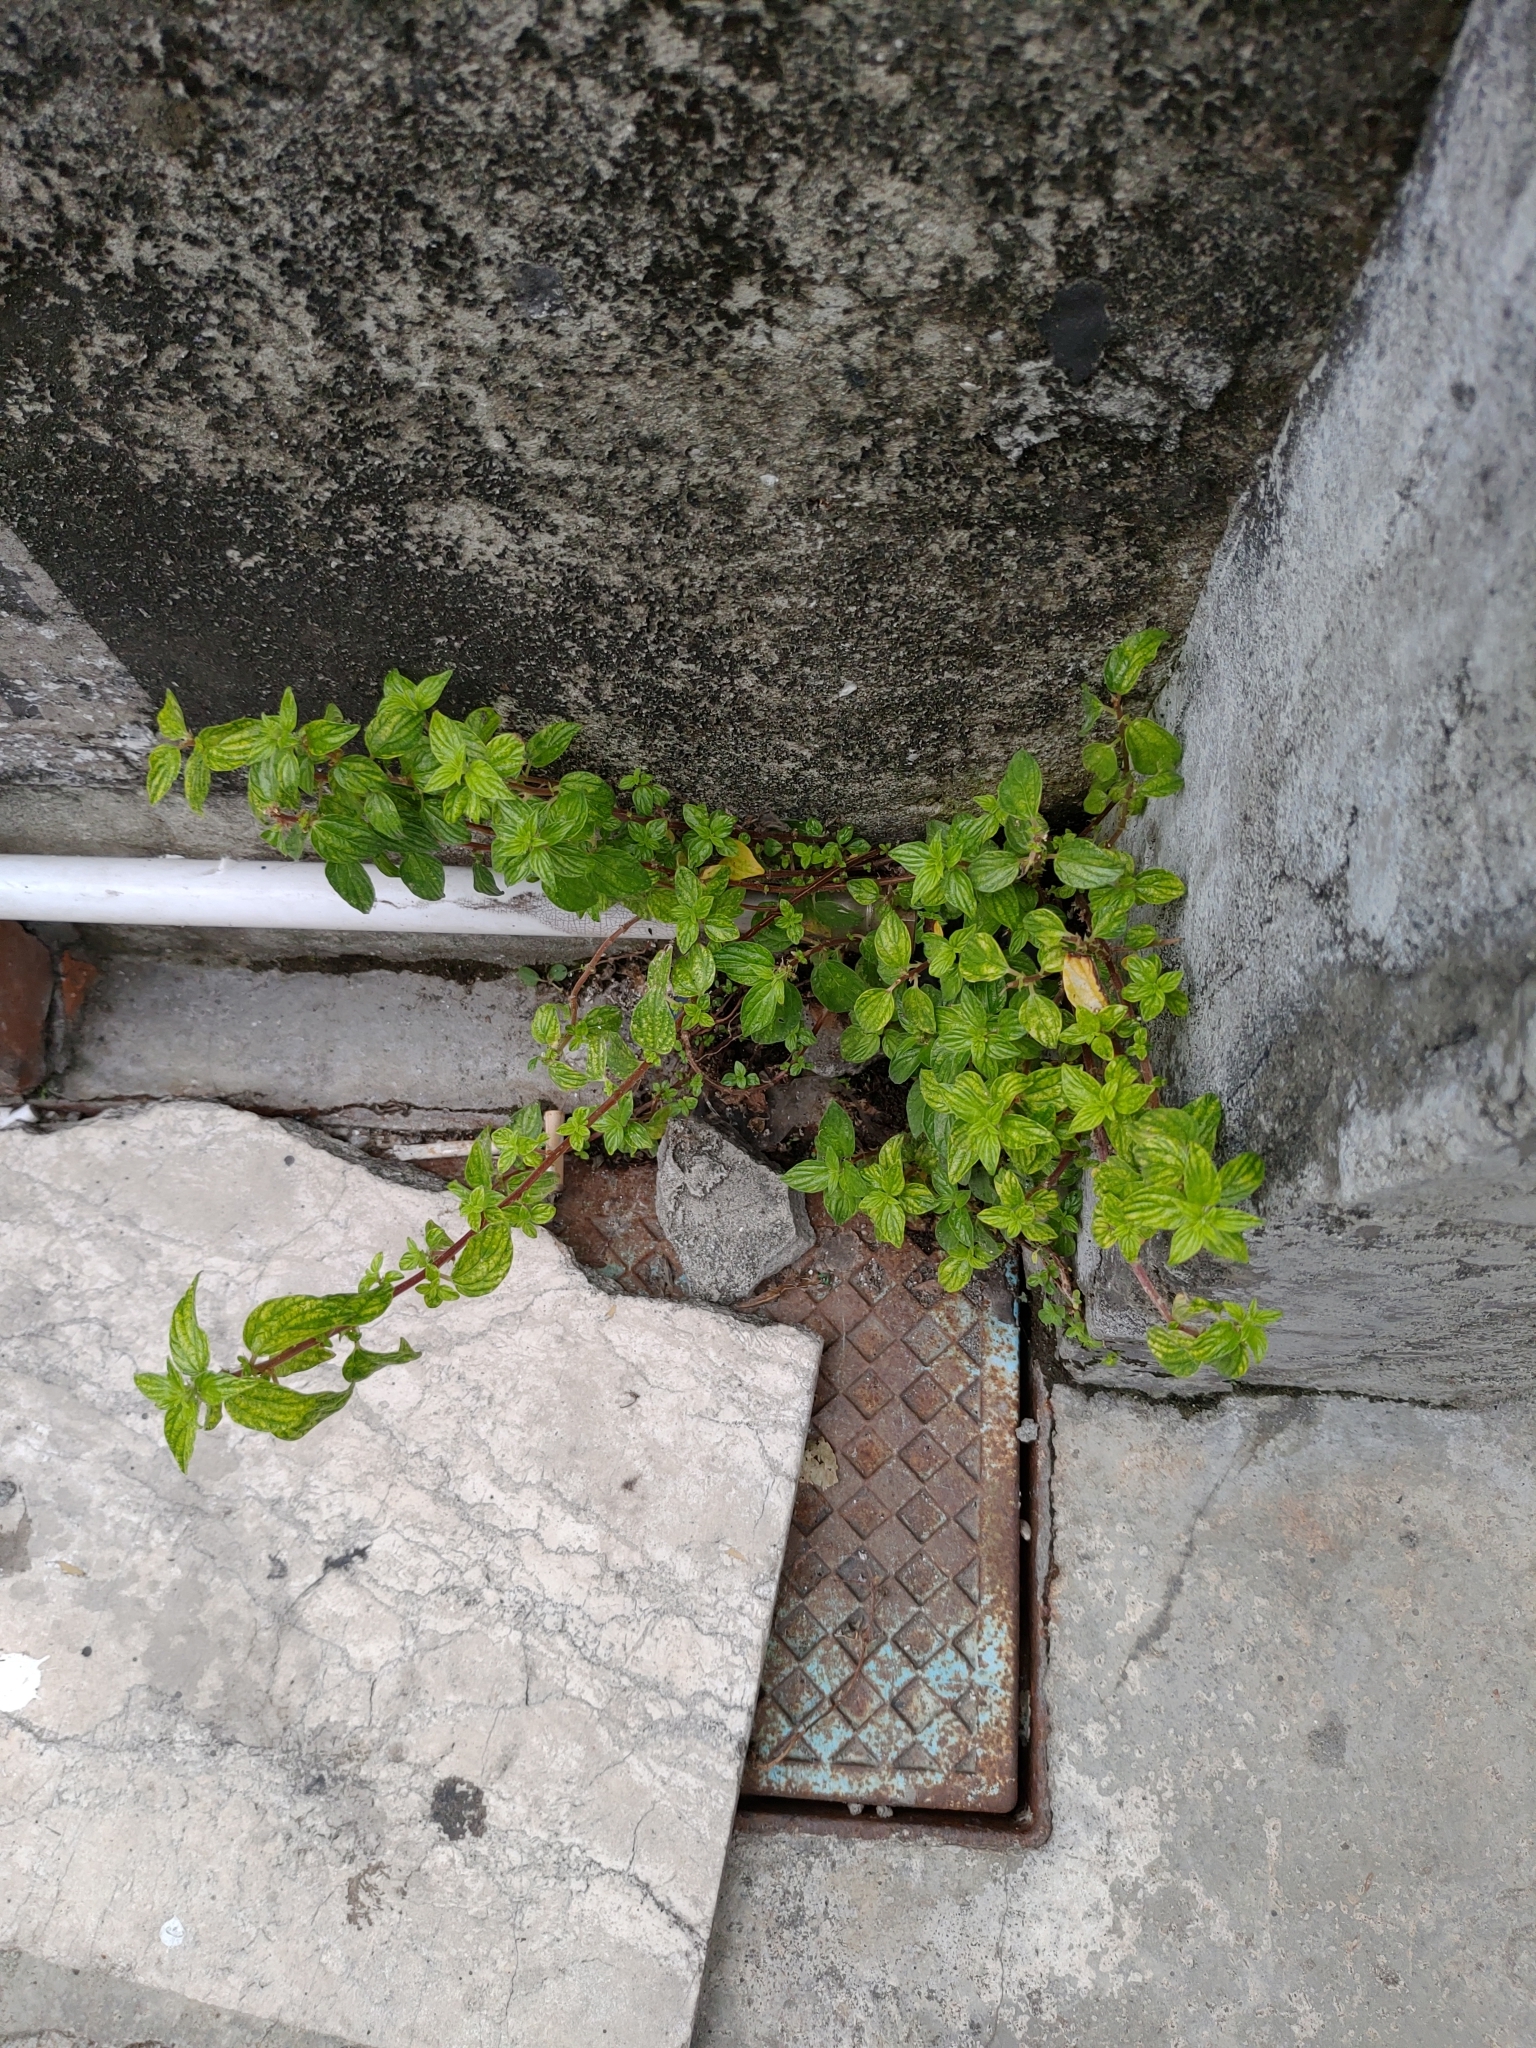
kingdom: Plantae
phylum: Tracheophyta
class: Magnoliopsida
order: Rosales
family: Urticaceae
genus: Pouzolzia
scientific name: Pouzolzia zeylanica
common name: Graceful pouzolzsbush
